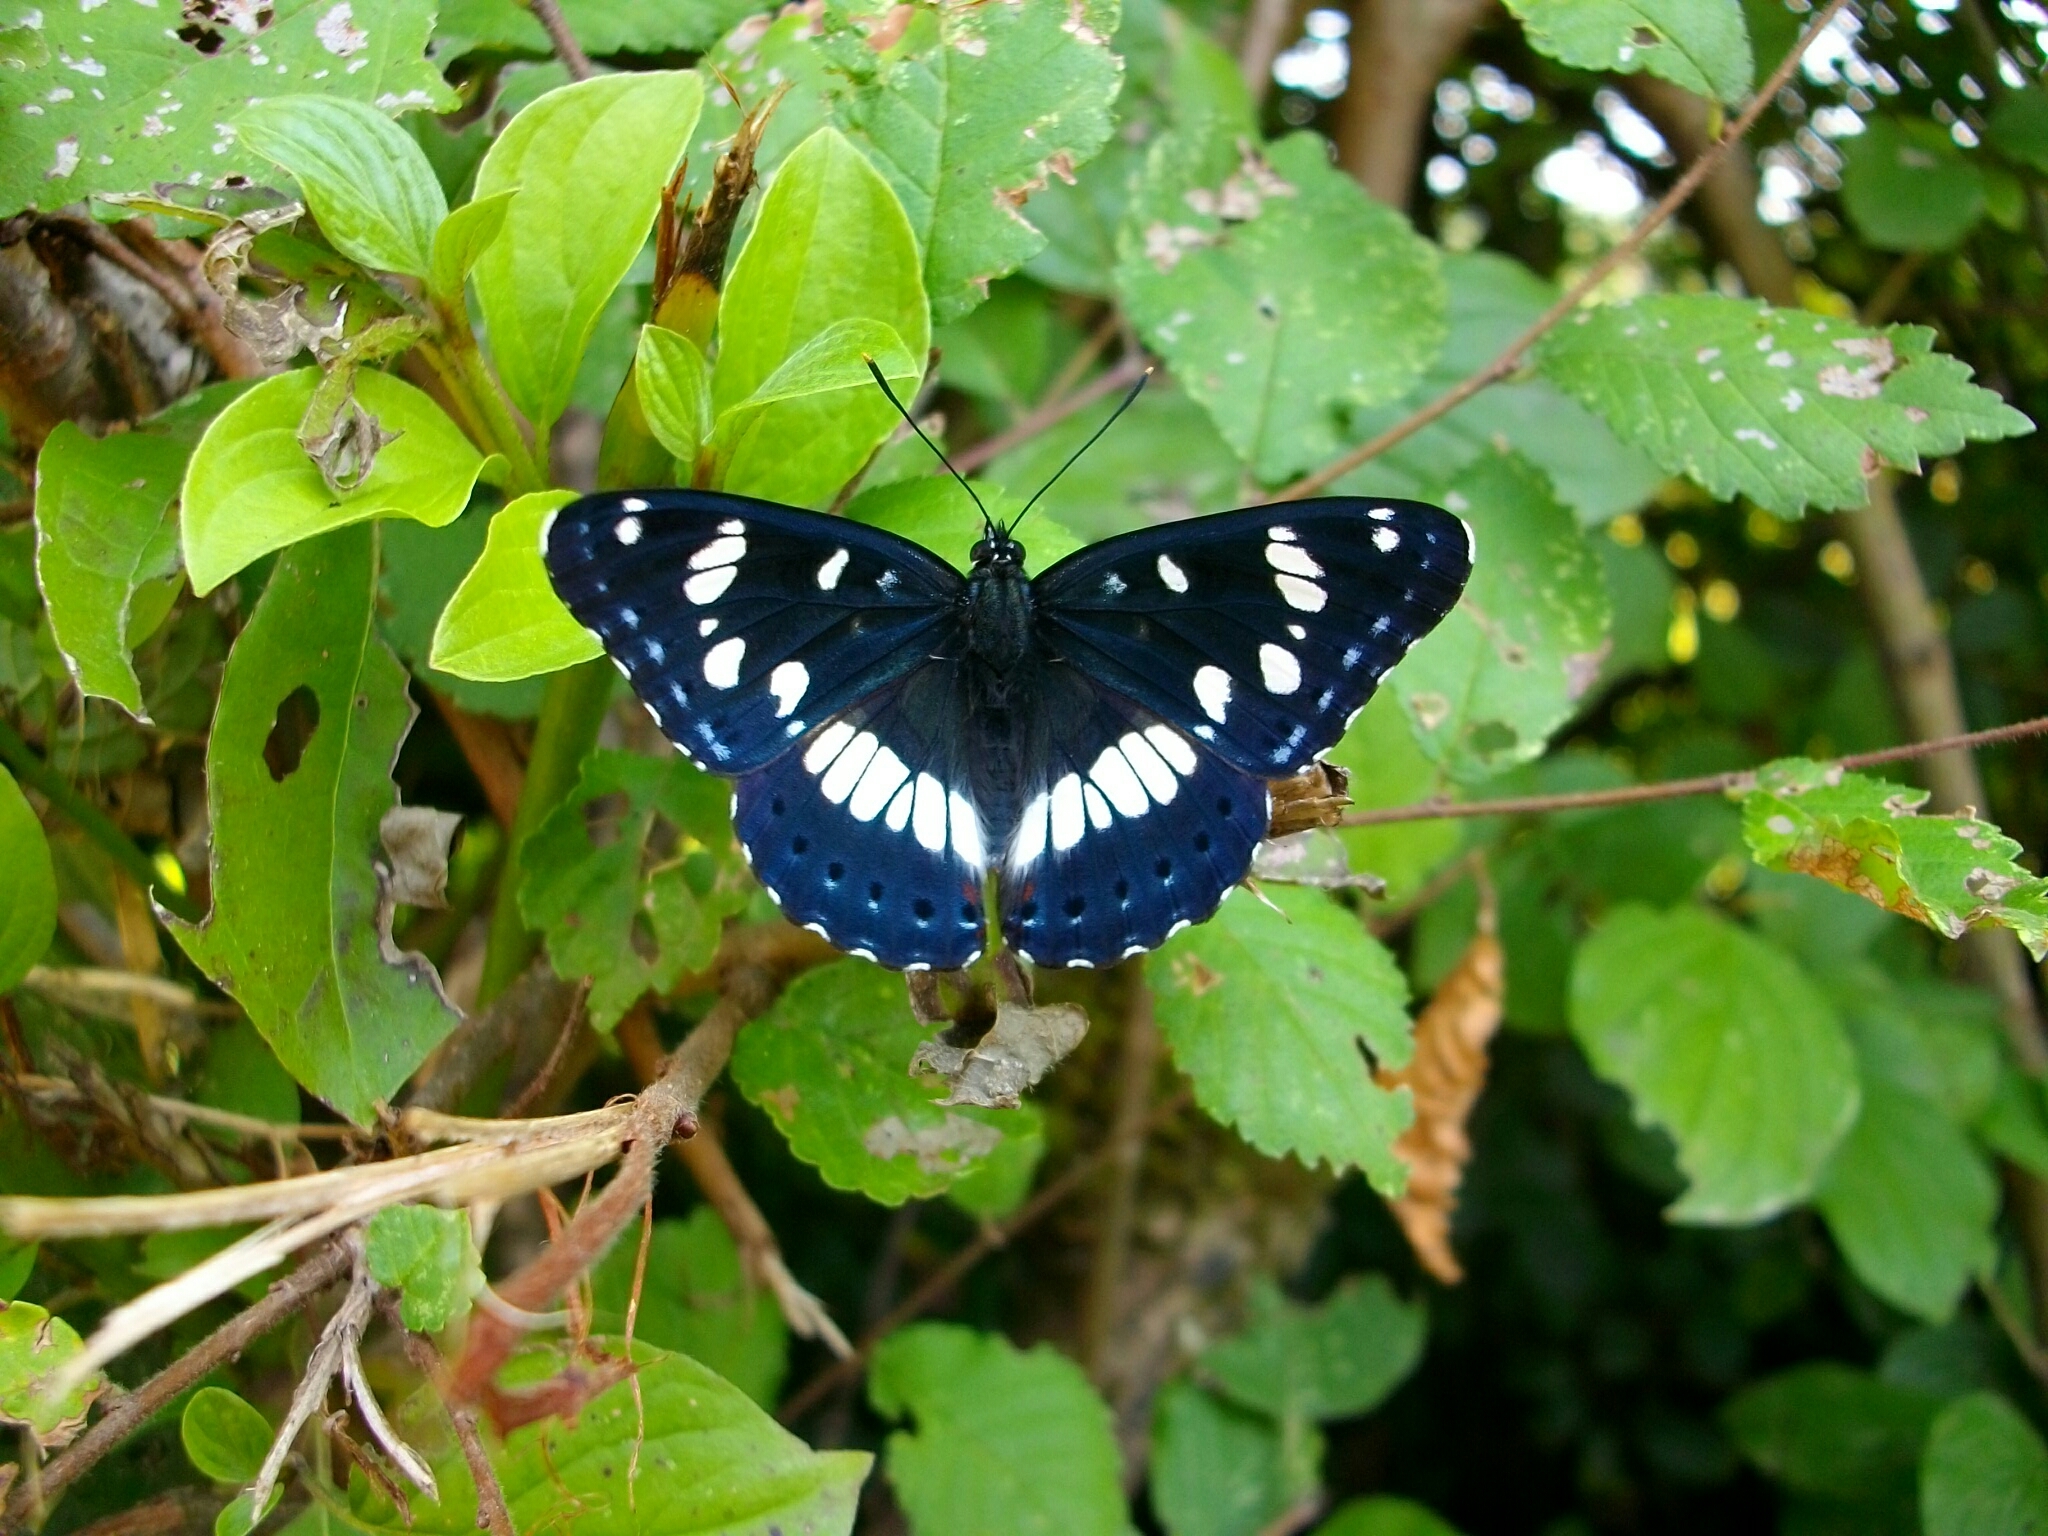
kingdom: Animalia
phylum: Arthropoda
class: Insecta
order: Lepidoptera
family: Nymphalidae
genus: Limenitis
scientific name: Limenitis reducta
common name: Southern white admiral
